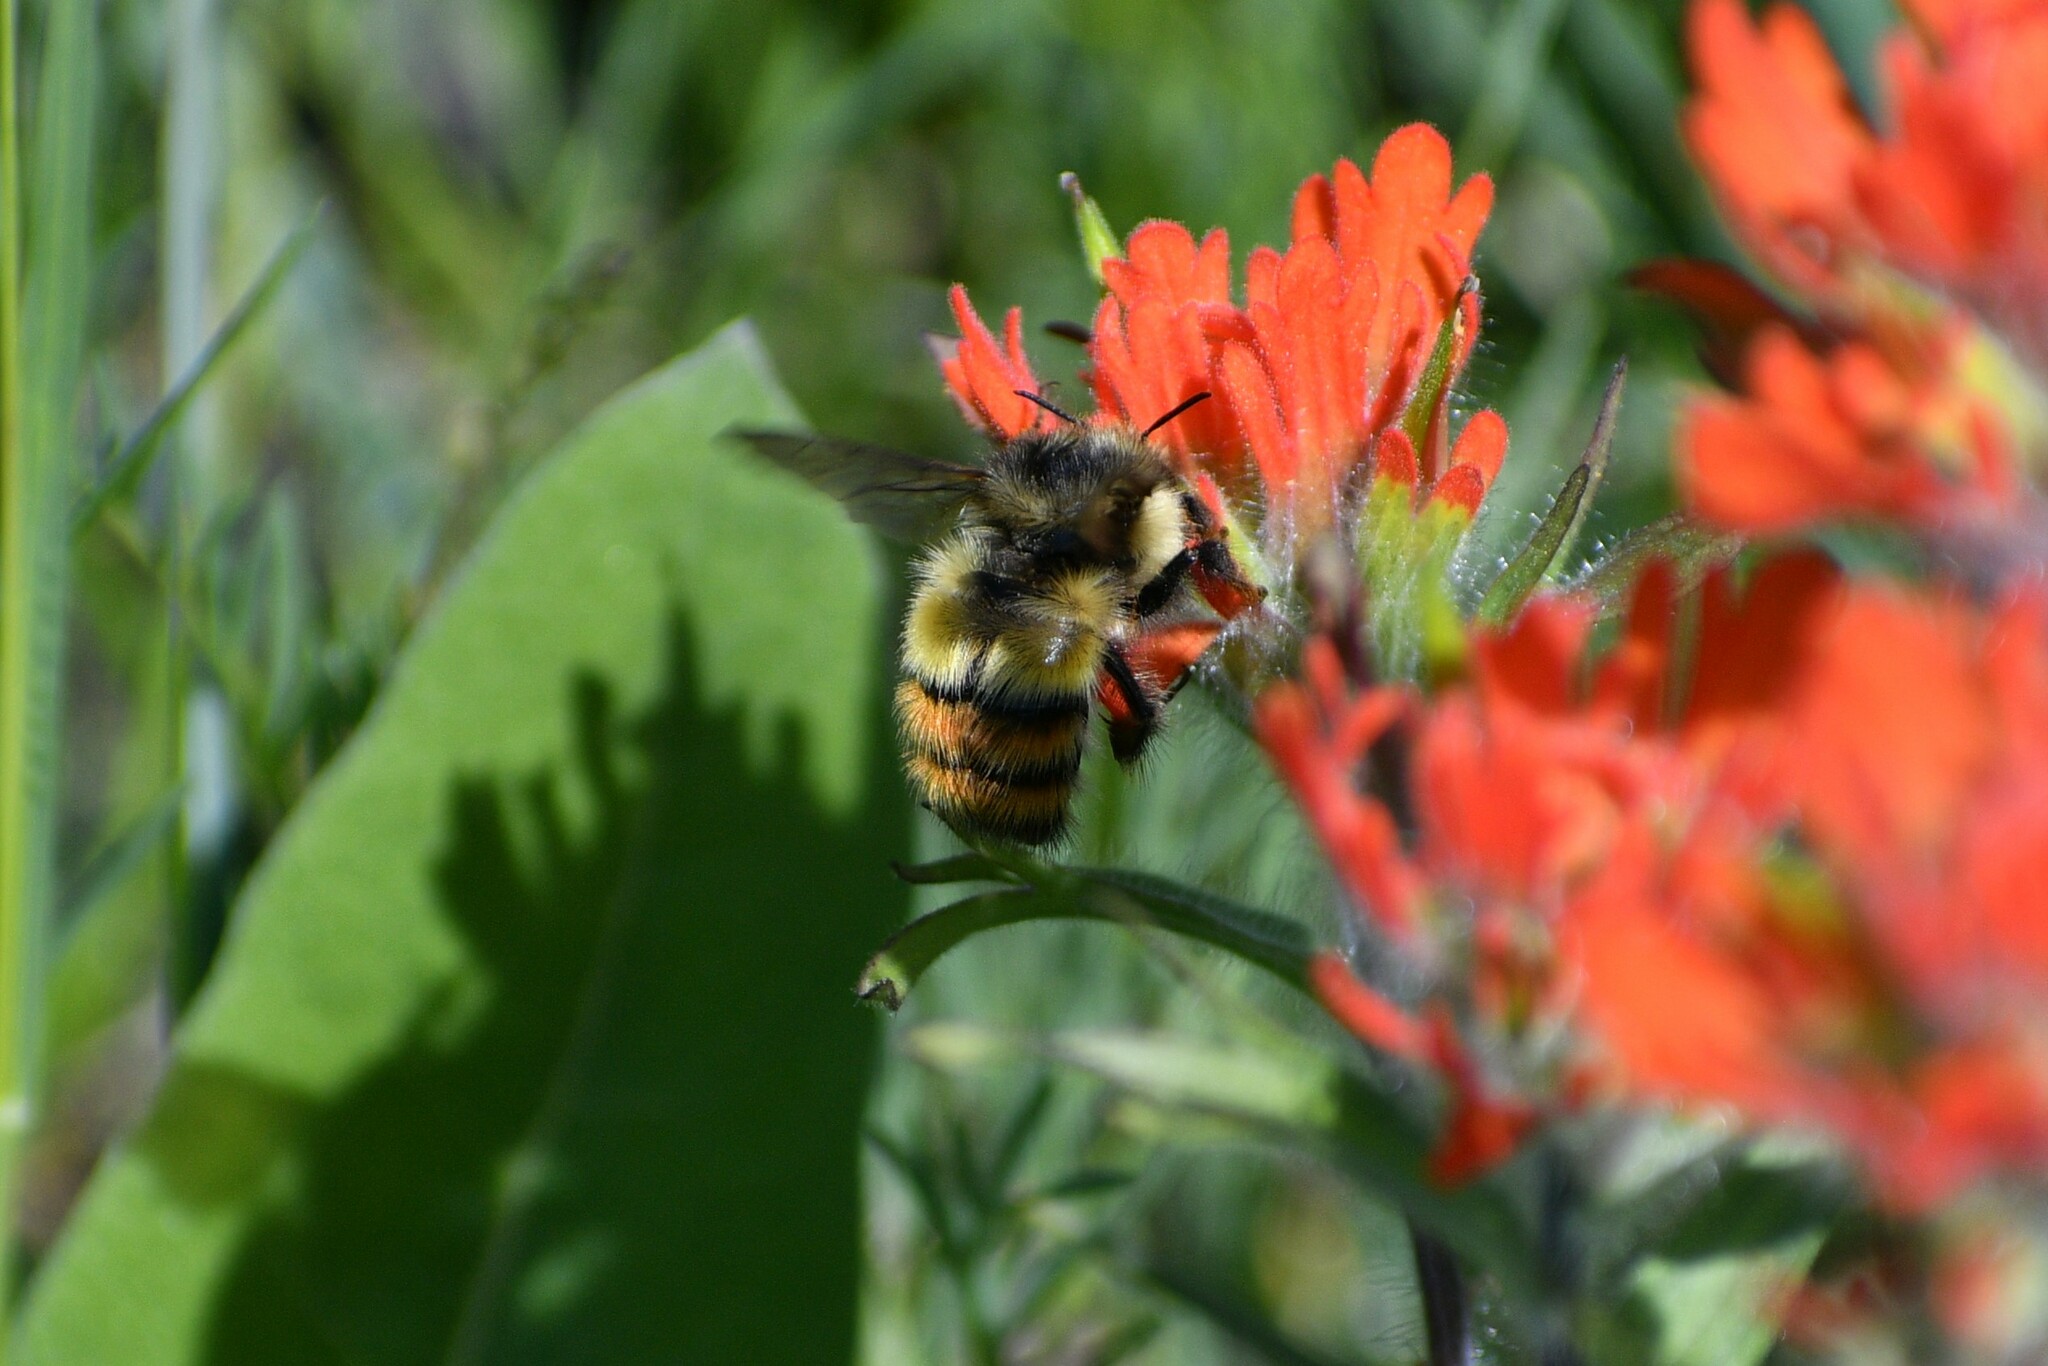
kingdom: Animalia
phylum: Arthropoda
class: Insecta
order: Hymenoptera
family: Apidae
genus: Bombus
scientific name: Bombus flavifrons
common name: Yellow head bumble bee
